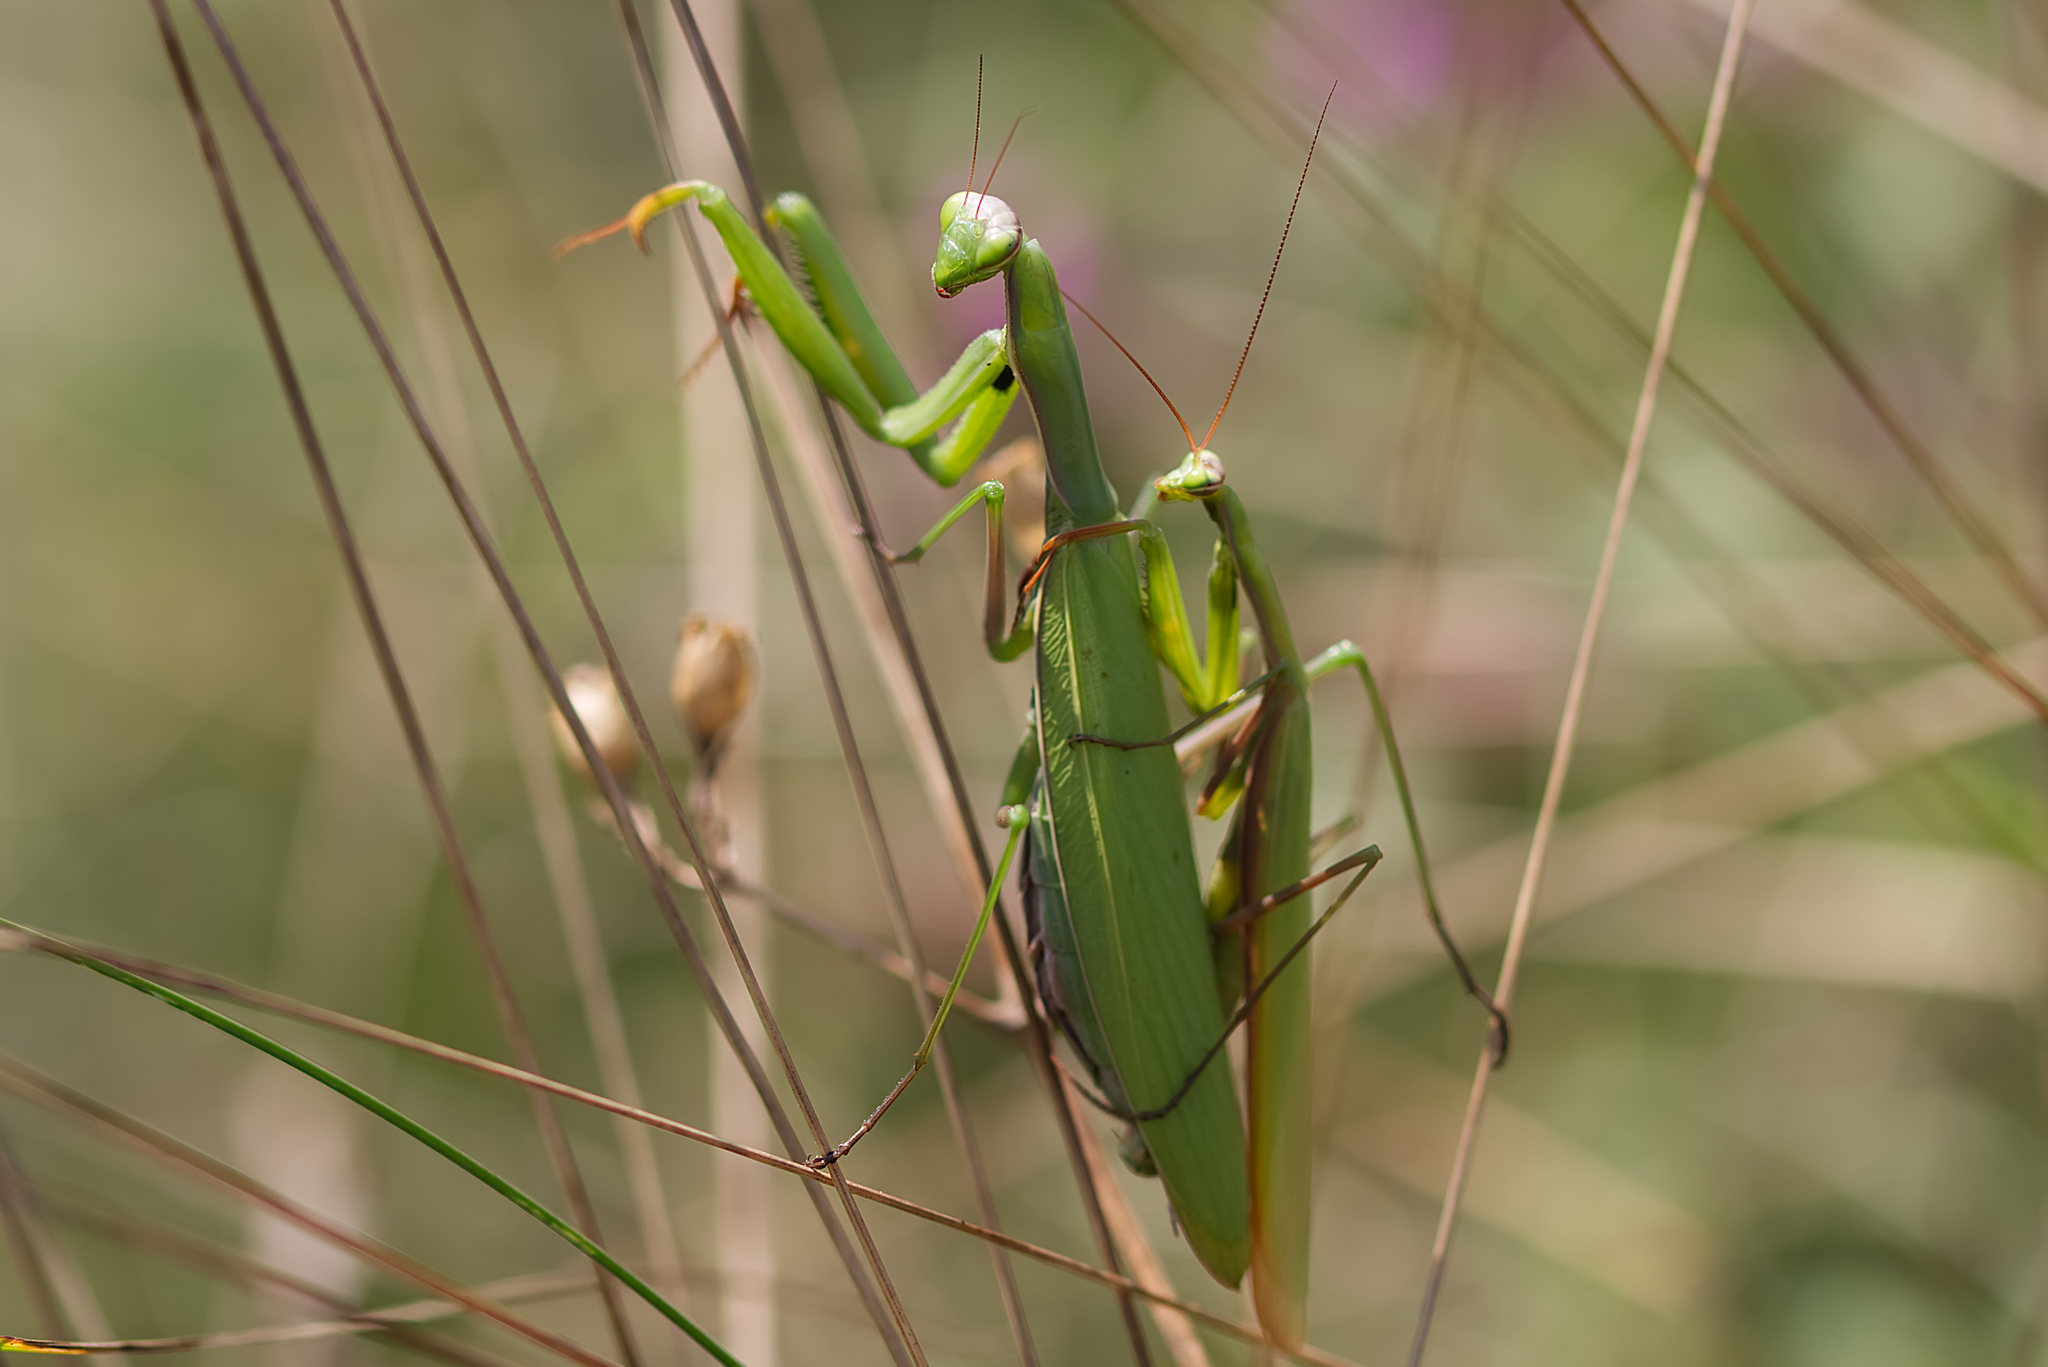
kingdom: Animalia
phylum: Arthropoda
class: Insecta
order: Mantodea
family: Mantidae
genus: Mantis
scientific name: Mantis religiosa
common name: Praying mantis
